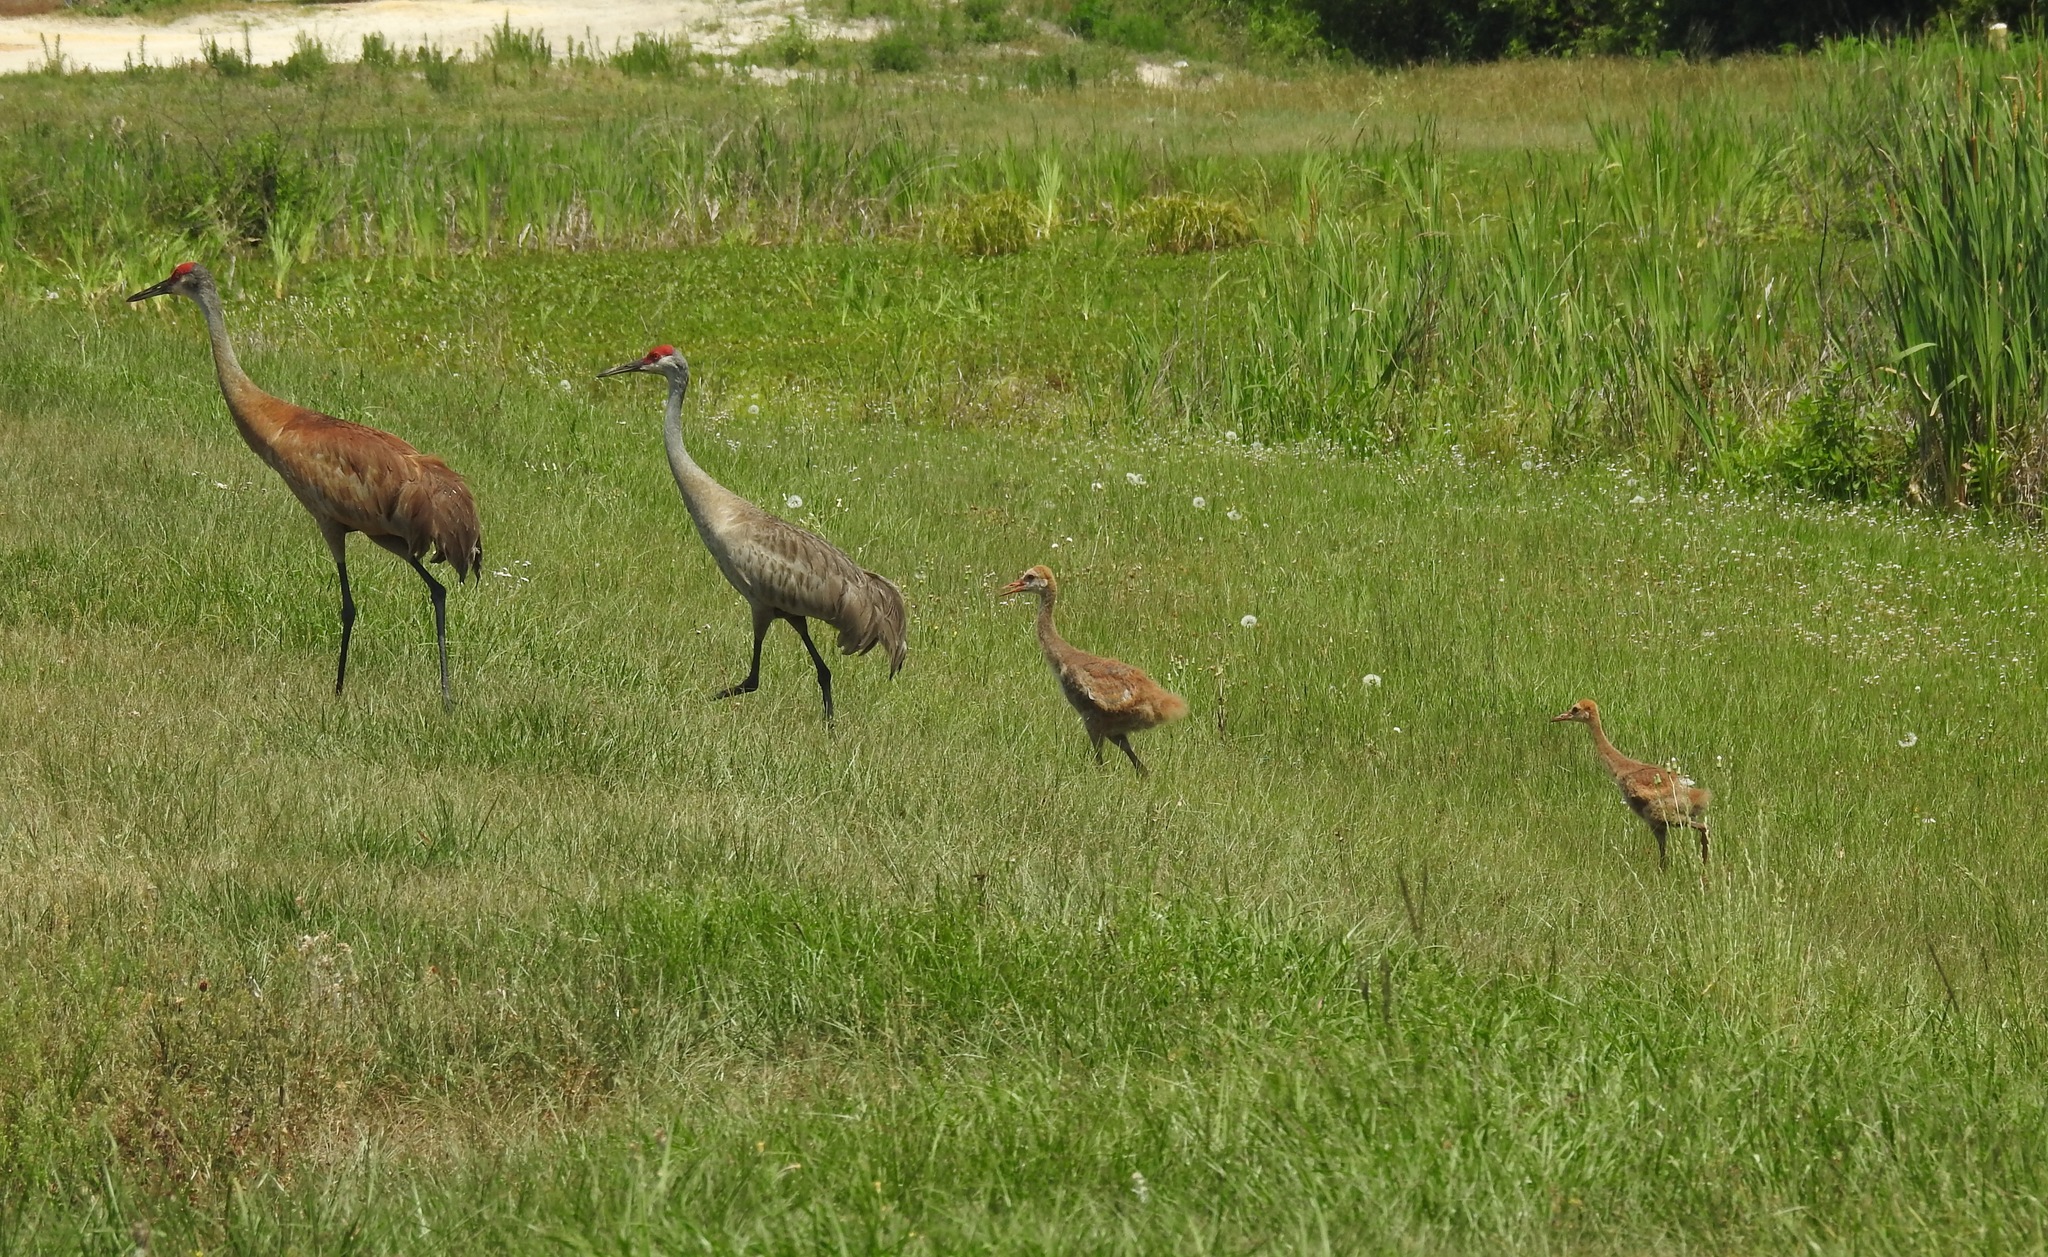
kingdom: Animalia
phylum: Chordata
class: Aves
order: Gruiformes
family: Gruidae
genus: Grus
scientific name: Grus canadensis
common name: Sandhill crane
